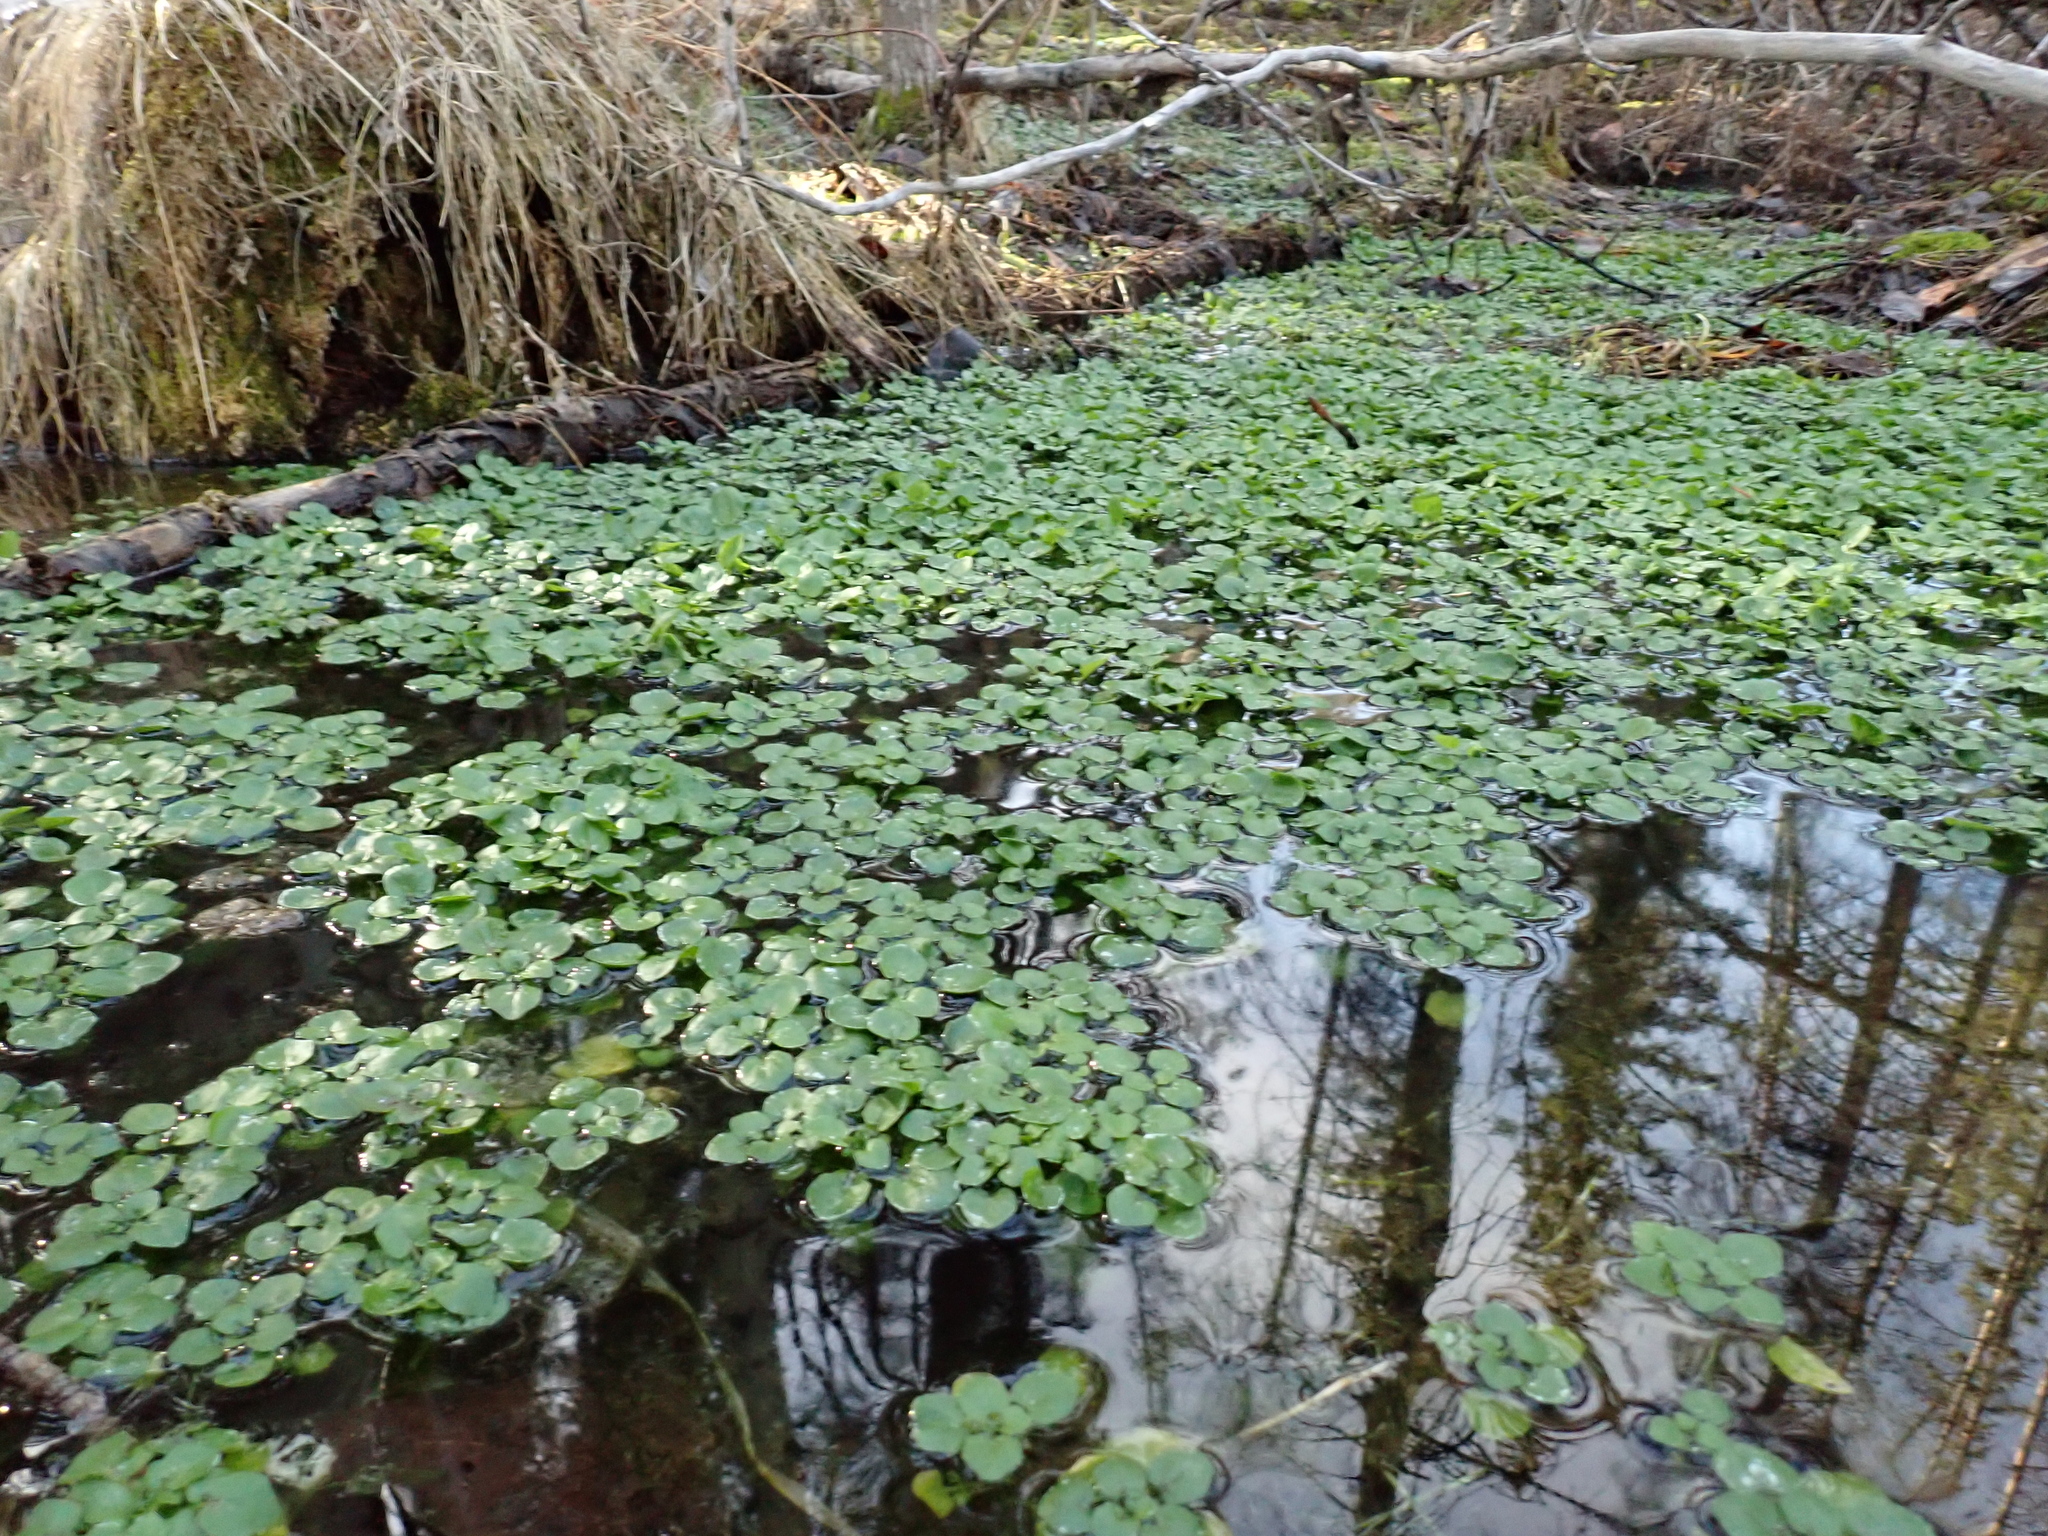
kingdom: Plantae
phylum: Tracheophyta
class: Magnoliopsida
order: Brassicales
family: Brassicaceae
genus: Nasturtium
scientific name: Nasturtium officinale
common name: Watercress
